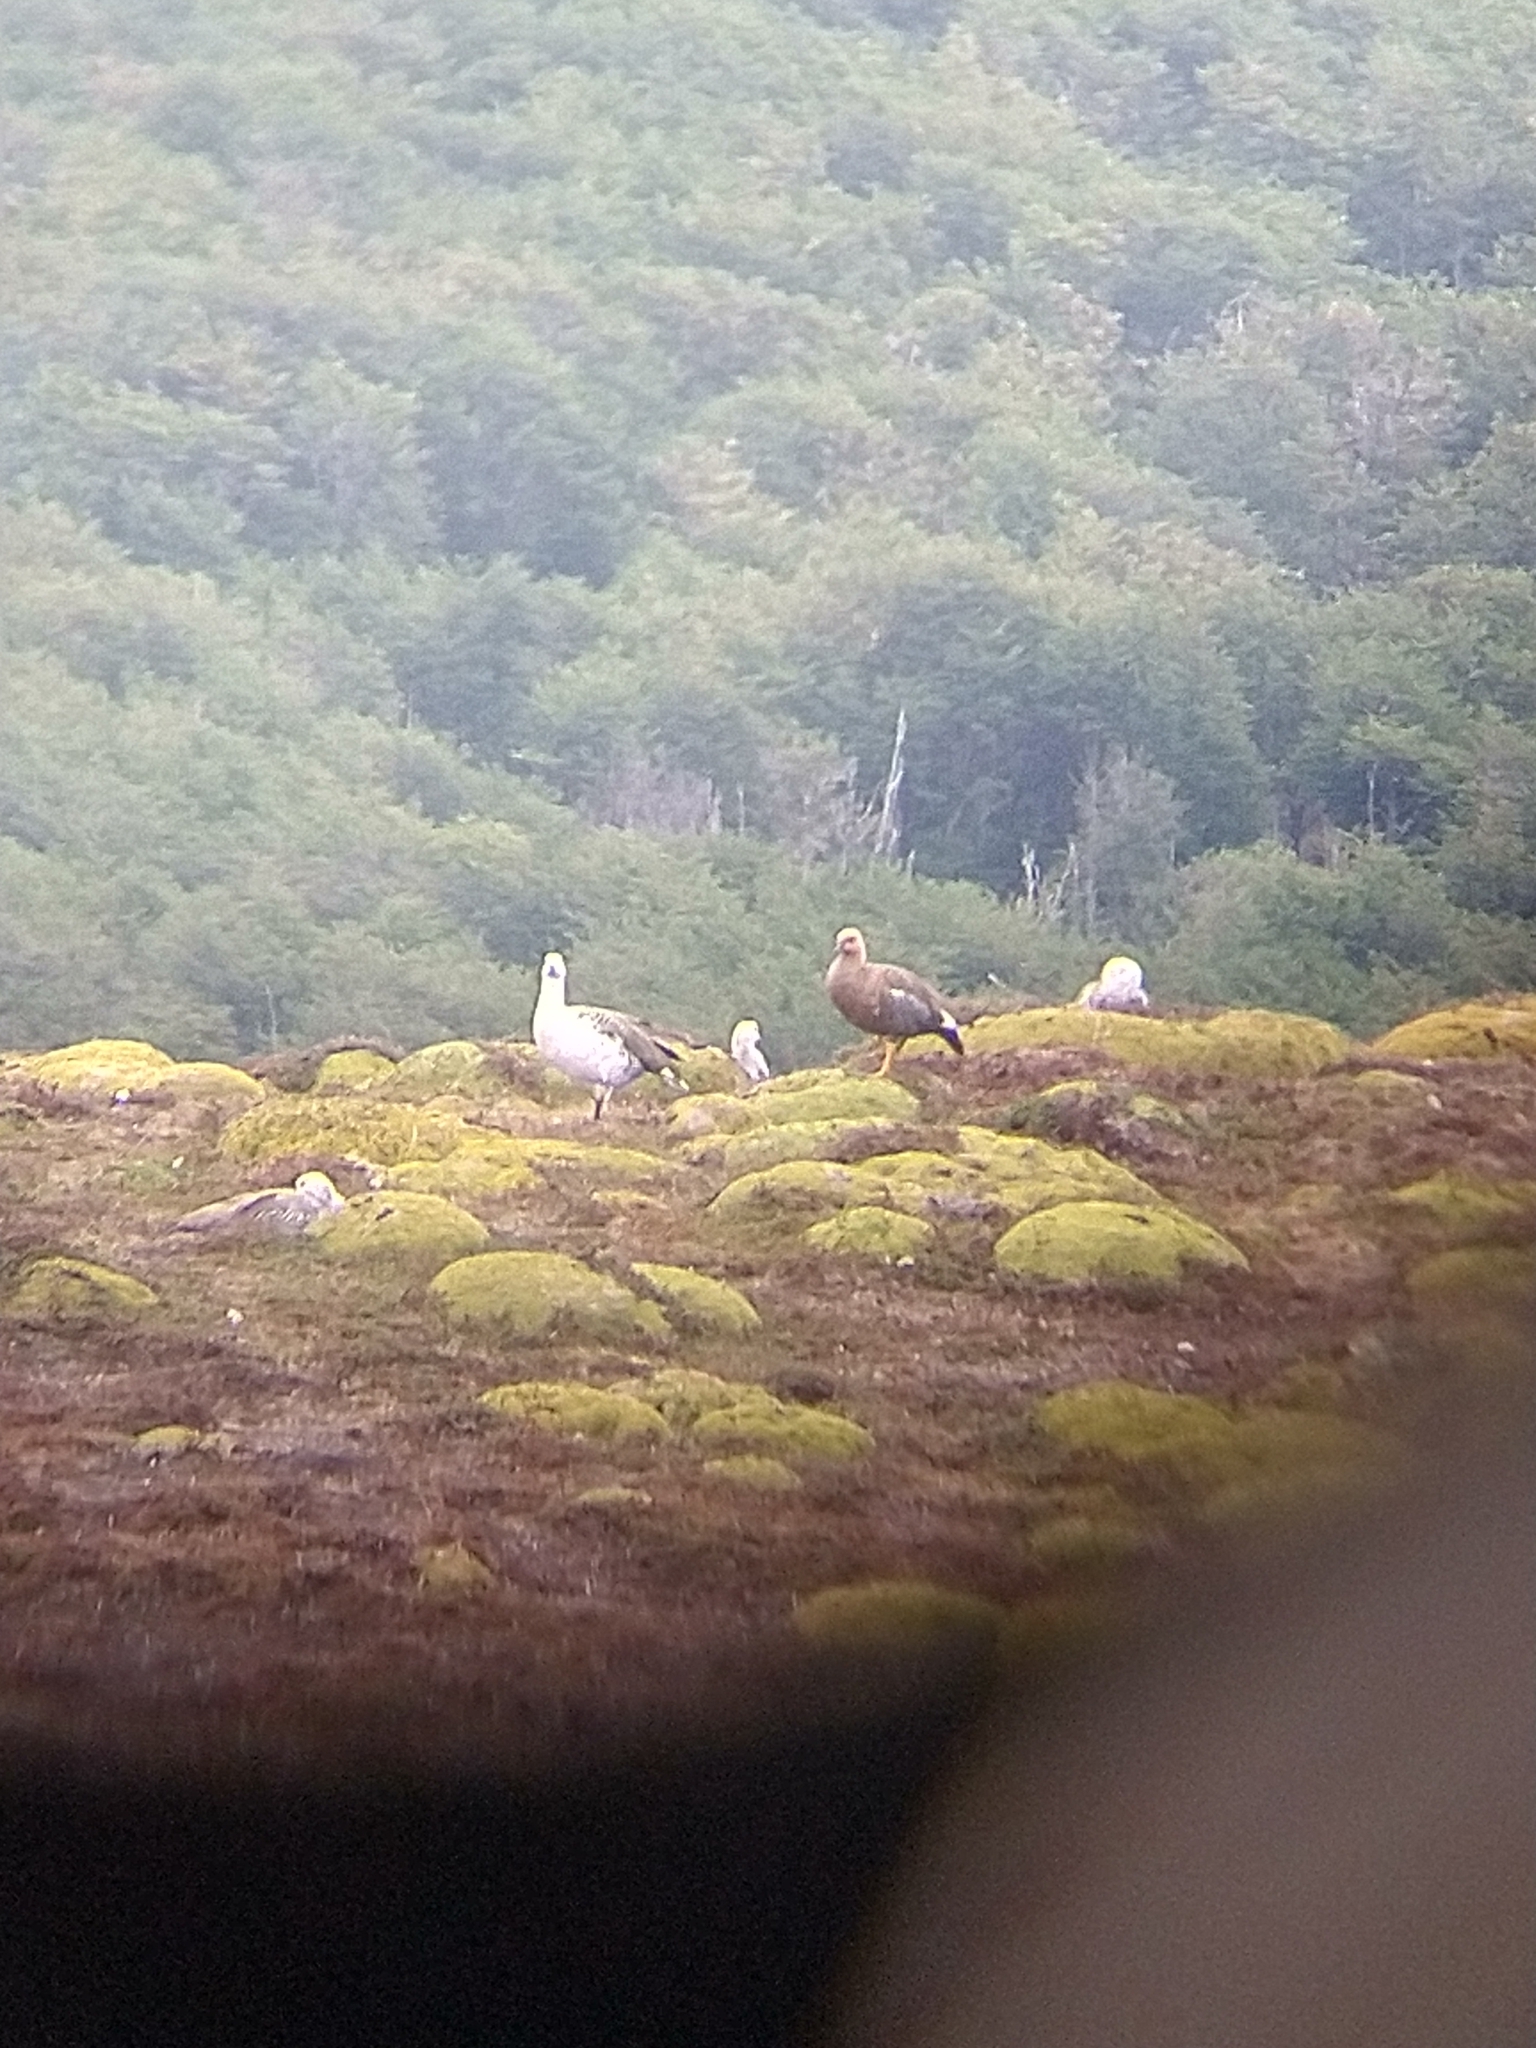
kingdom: Animalia
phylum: Chordata
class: Aves
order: Anseriformes
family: Anatidae
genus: Chloephaga
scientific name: Chloephaga picta
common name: Upland goose
